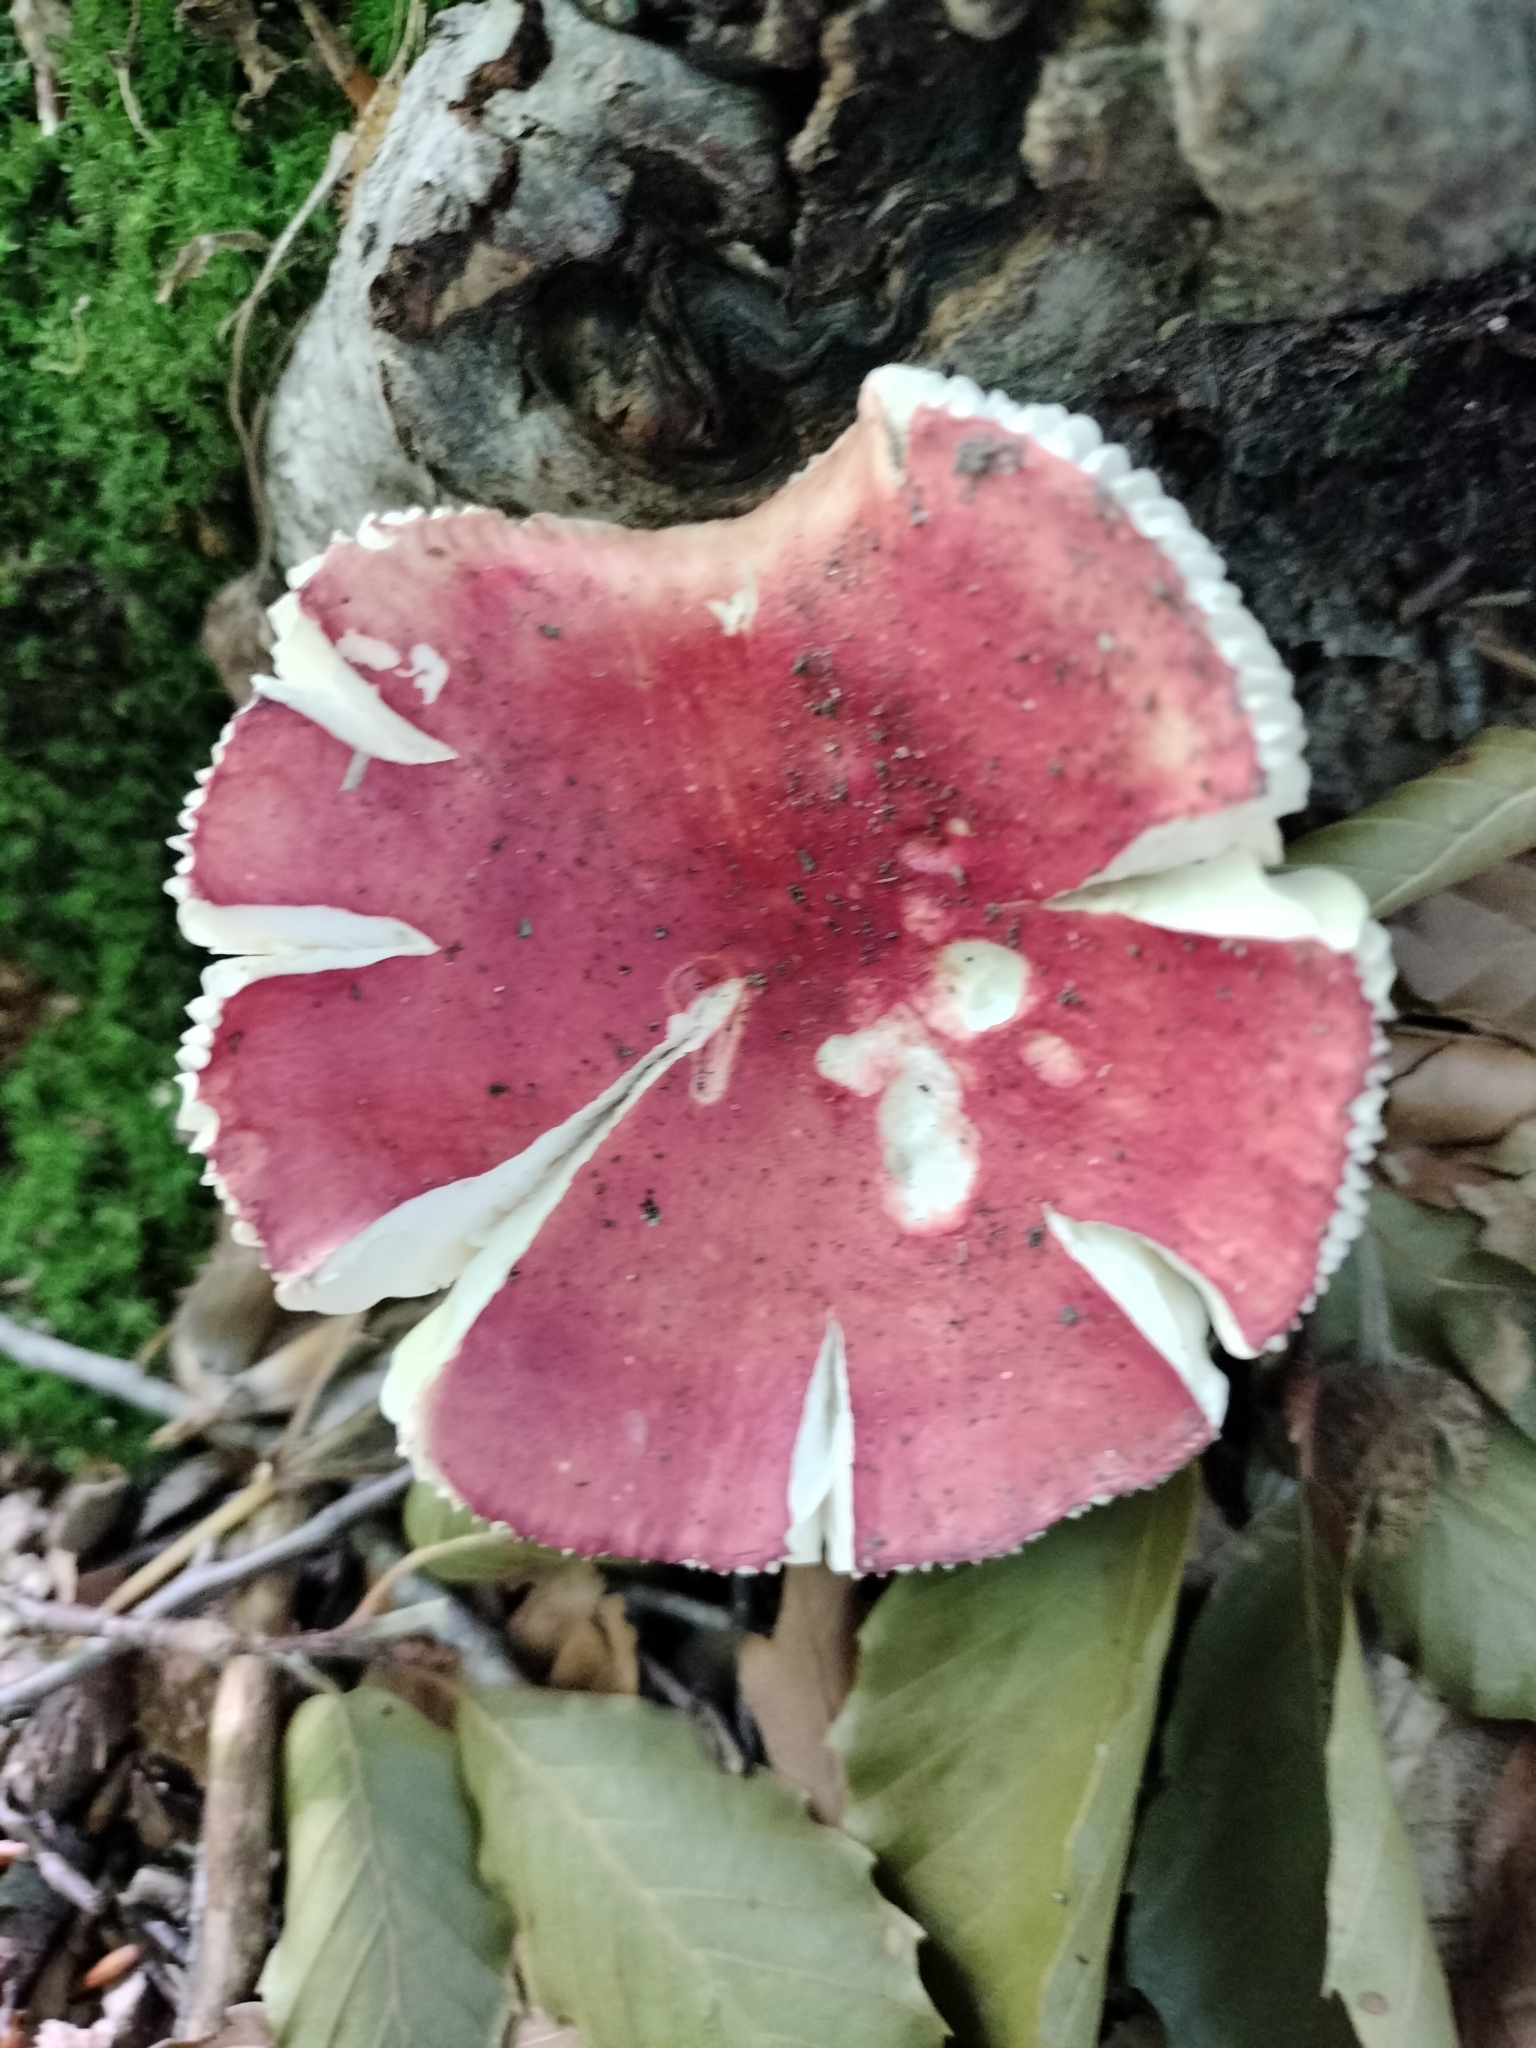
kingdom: Fungi
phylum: Basidiomycota
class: Agaricomycetes
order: Russulales
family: Russulaceae
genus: Russula
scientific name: Russula sanguinaria
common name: Bloody brittlegill
